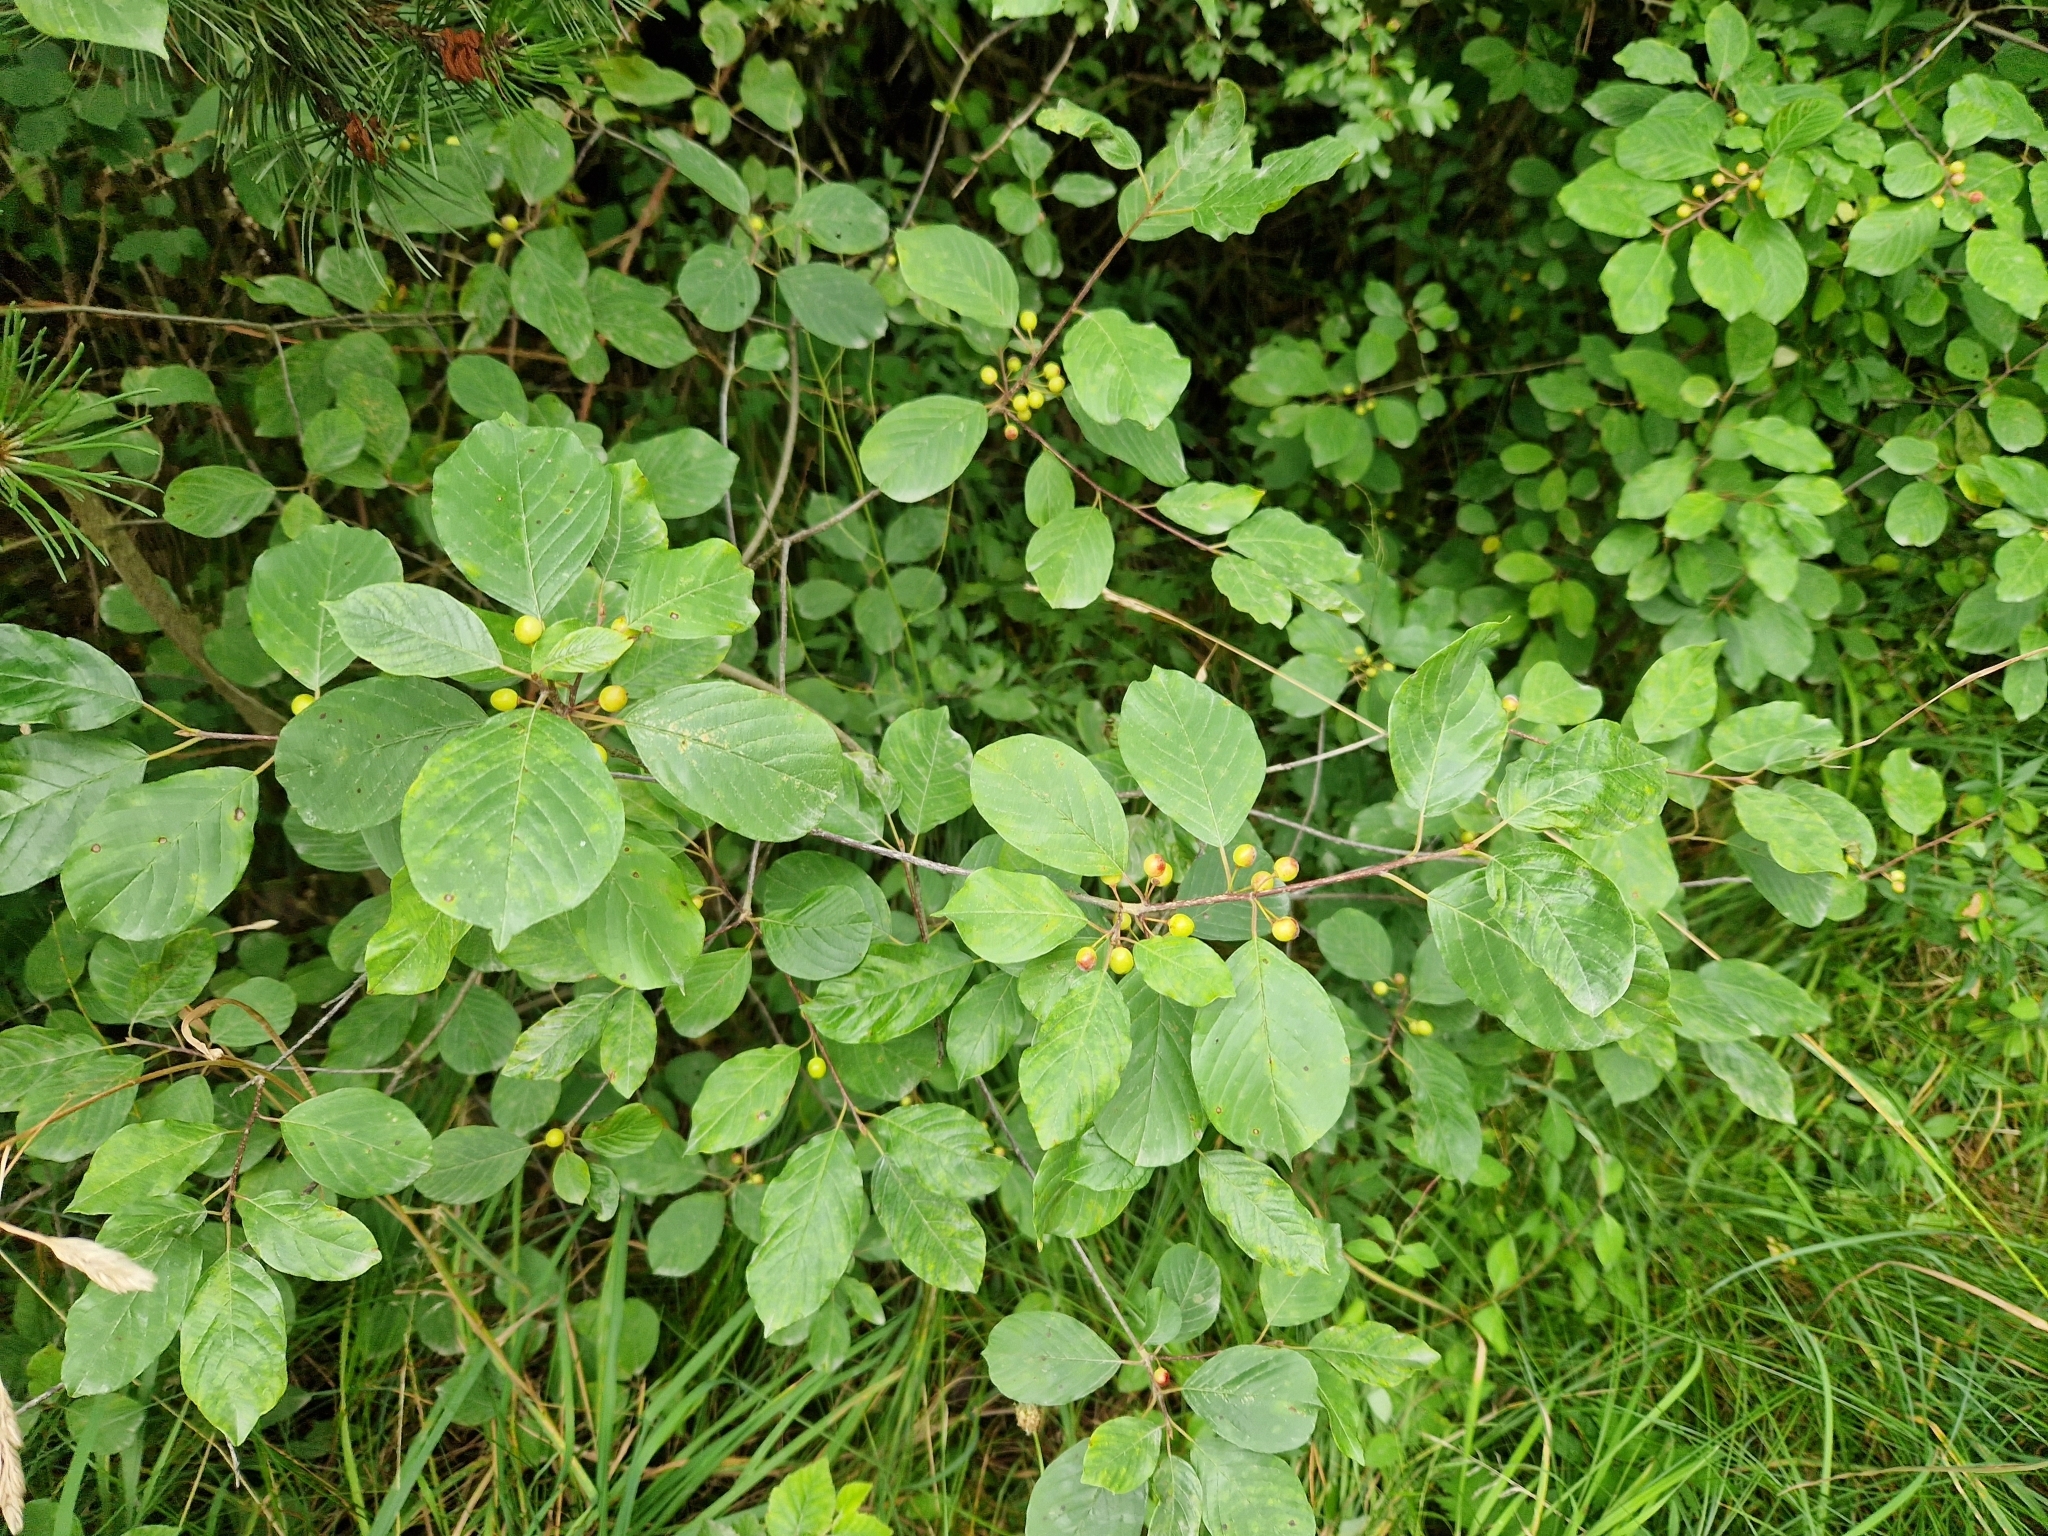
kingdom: Plantae
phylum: Tracheophyta
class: Magnoliopsida
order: Rosales
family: Rhamnaceae
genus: Frangula
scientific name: Frangula alnus
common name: Alder buckthorn
